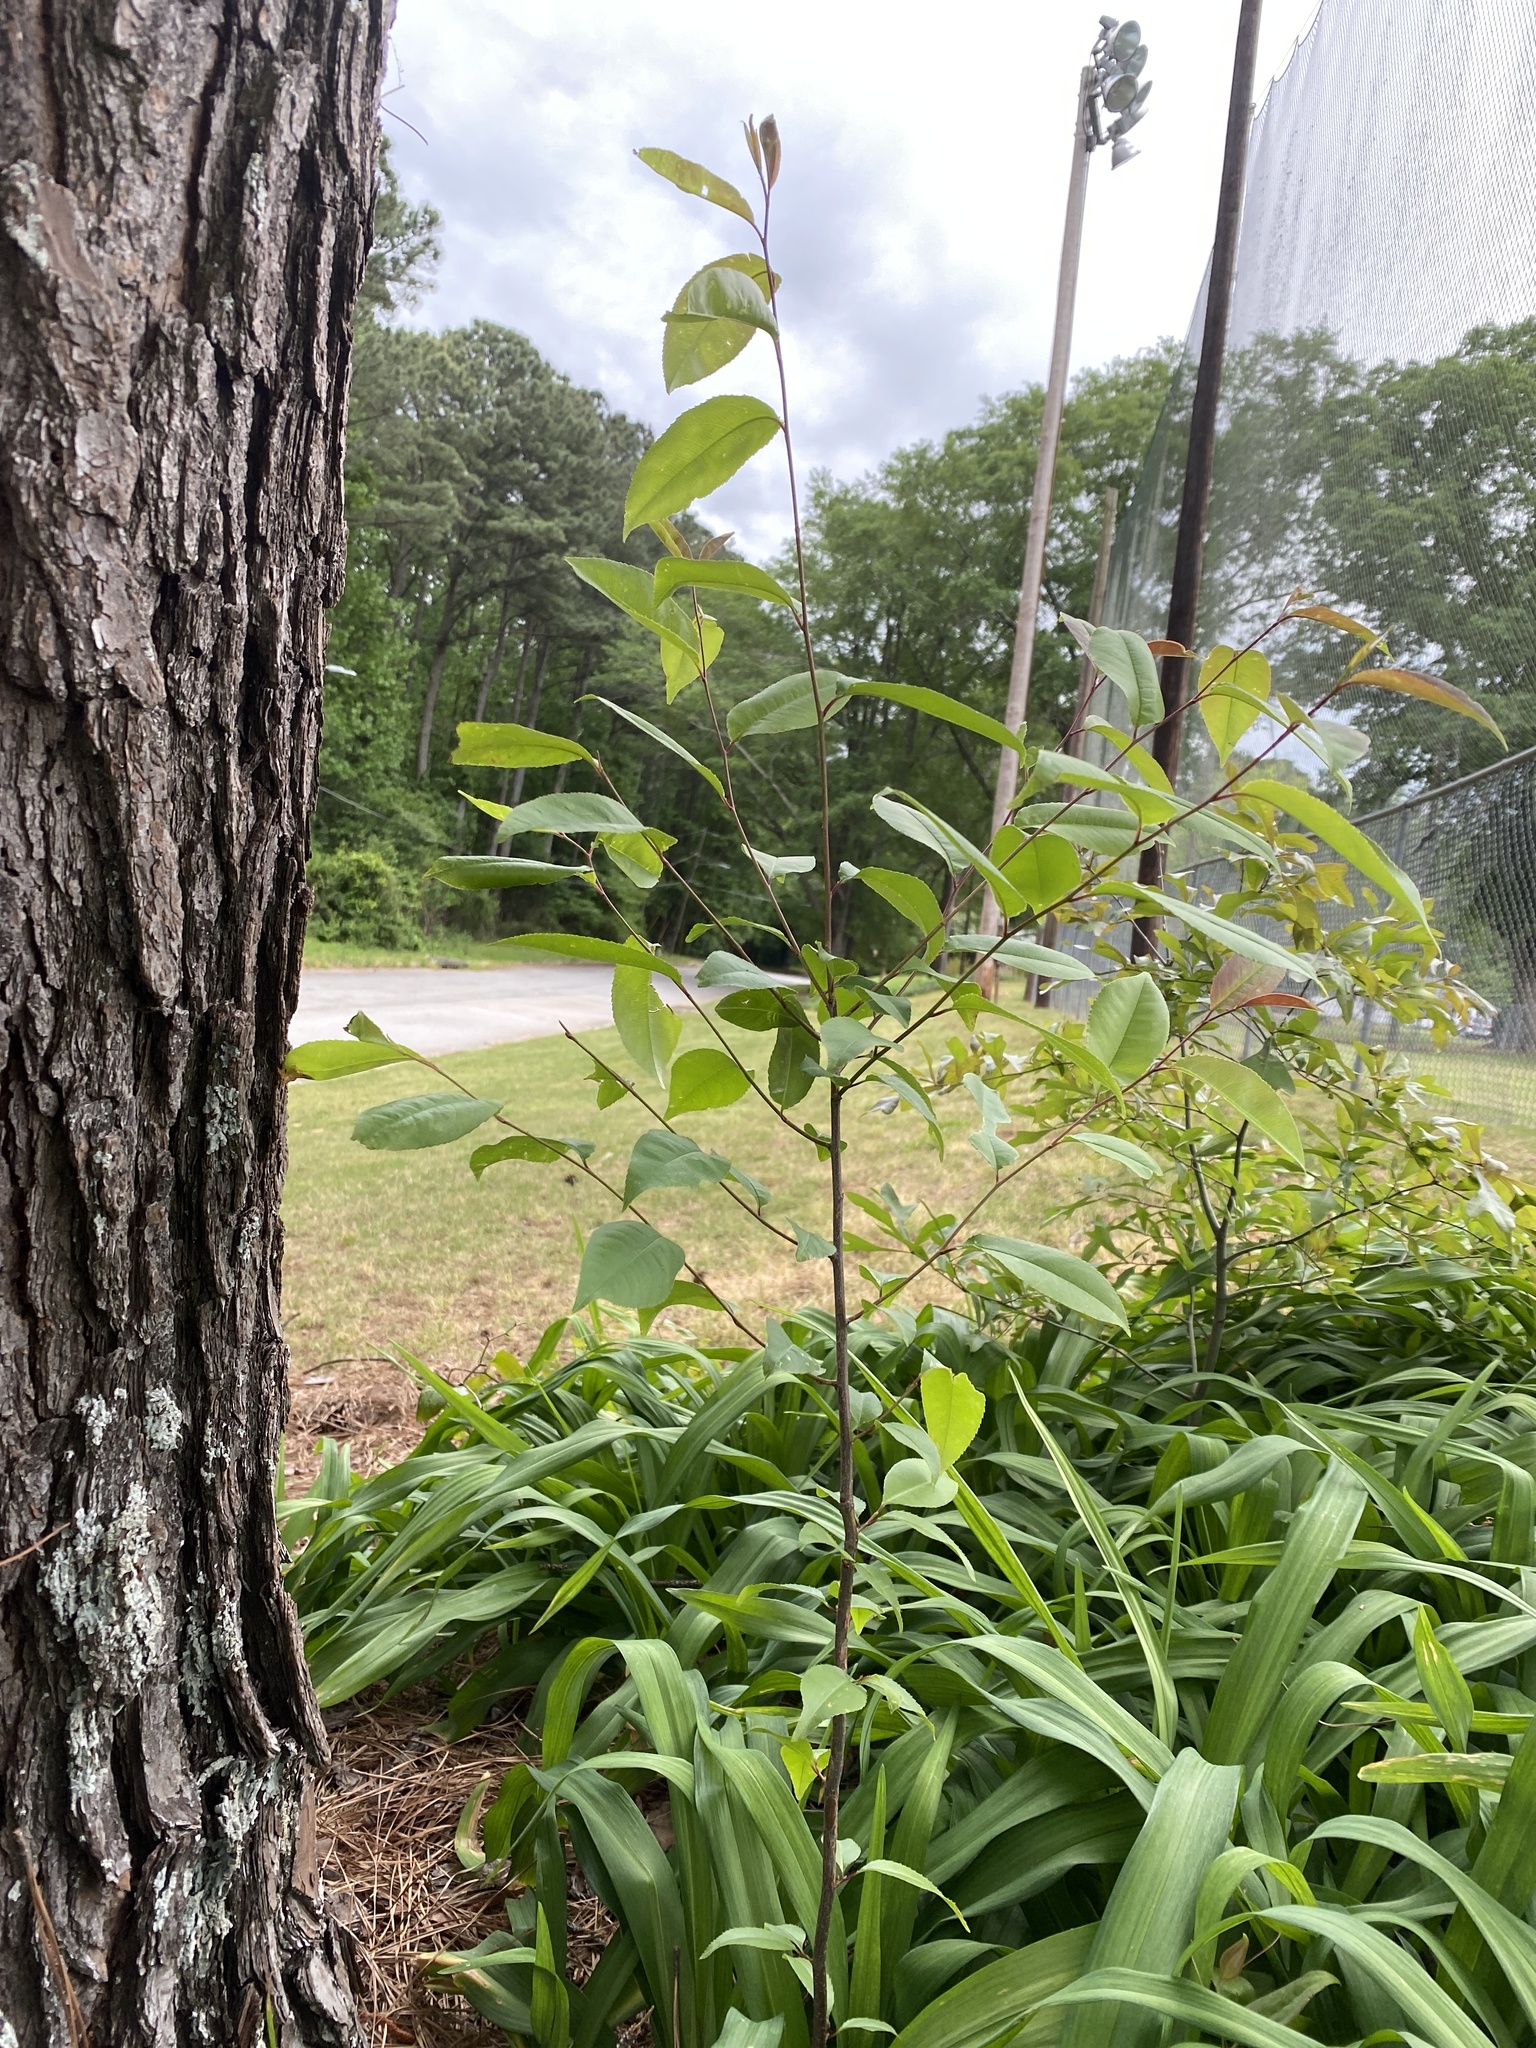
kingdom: Plantae
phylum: Tracheophyta
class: Magnoliopsida
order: Rosales
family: Rosaceae
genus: Prunus
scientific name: Prunus serotina
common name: Black cherry
